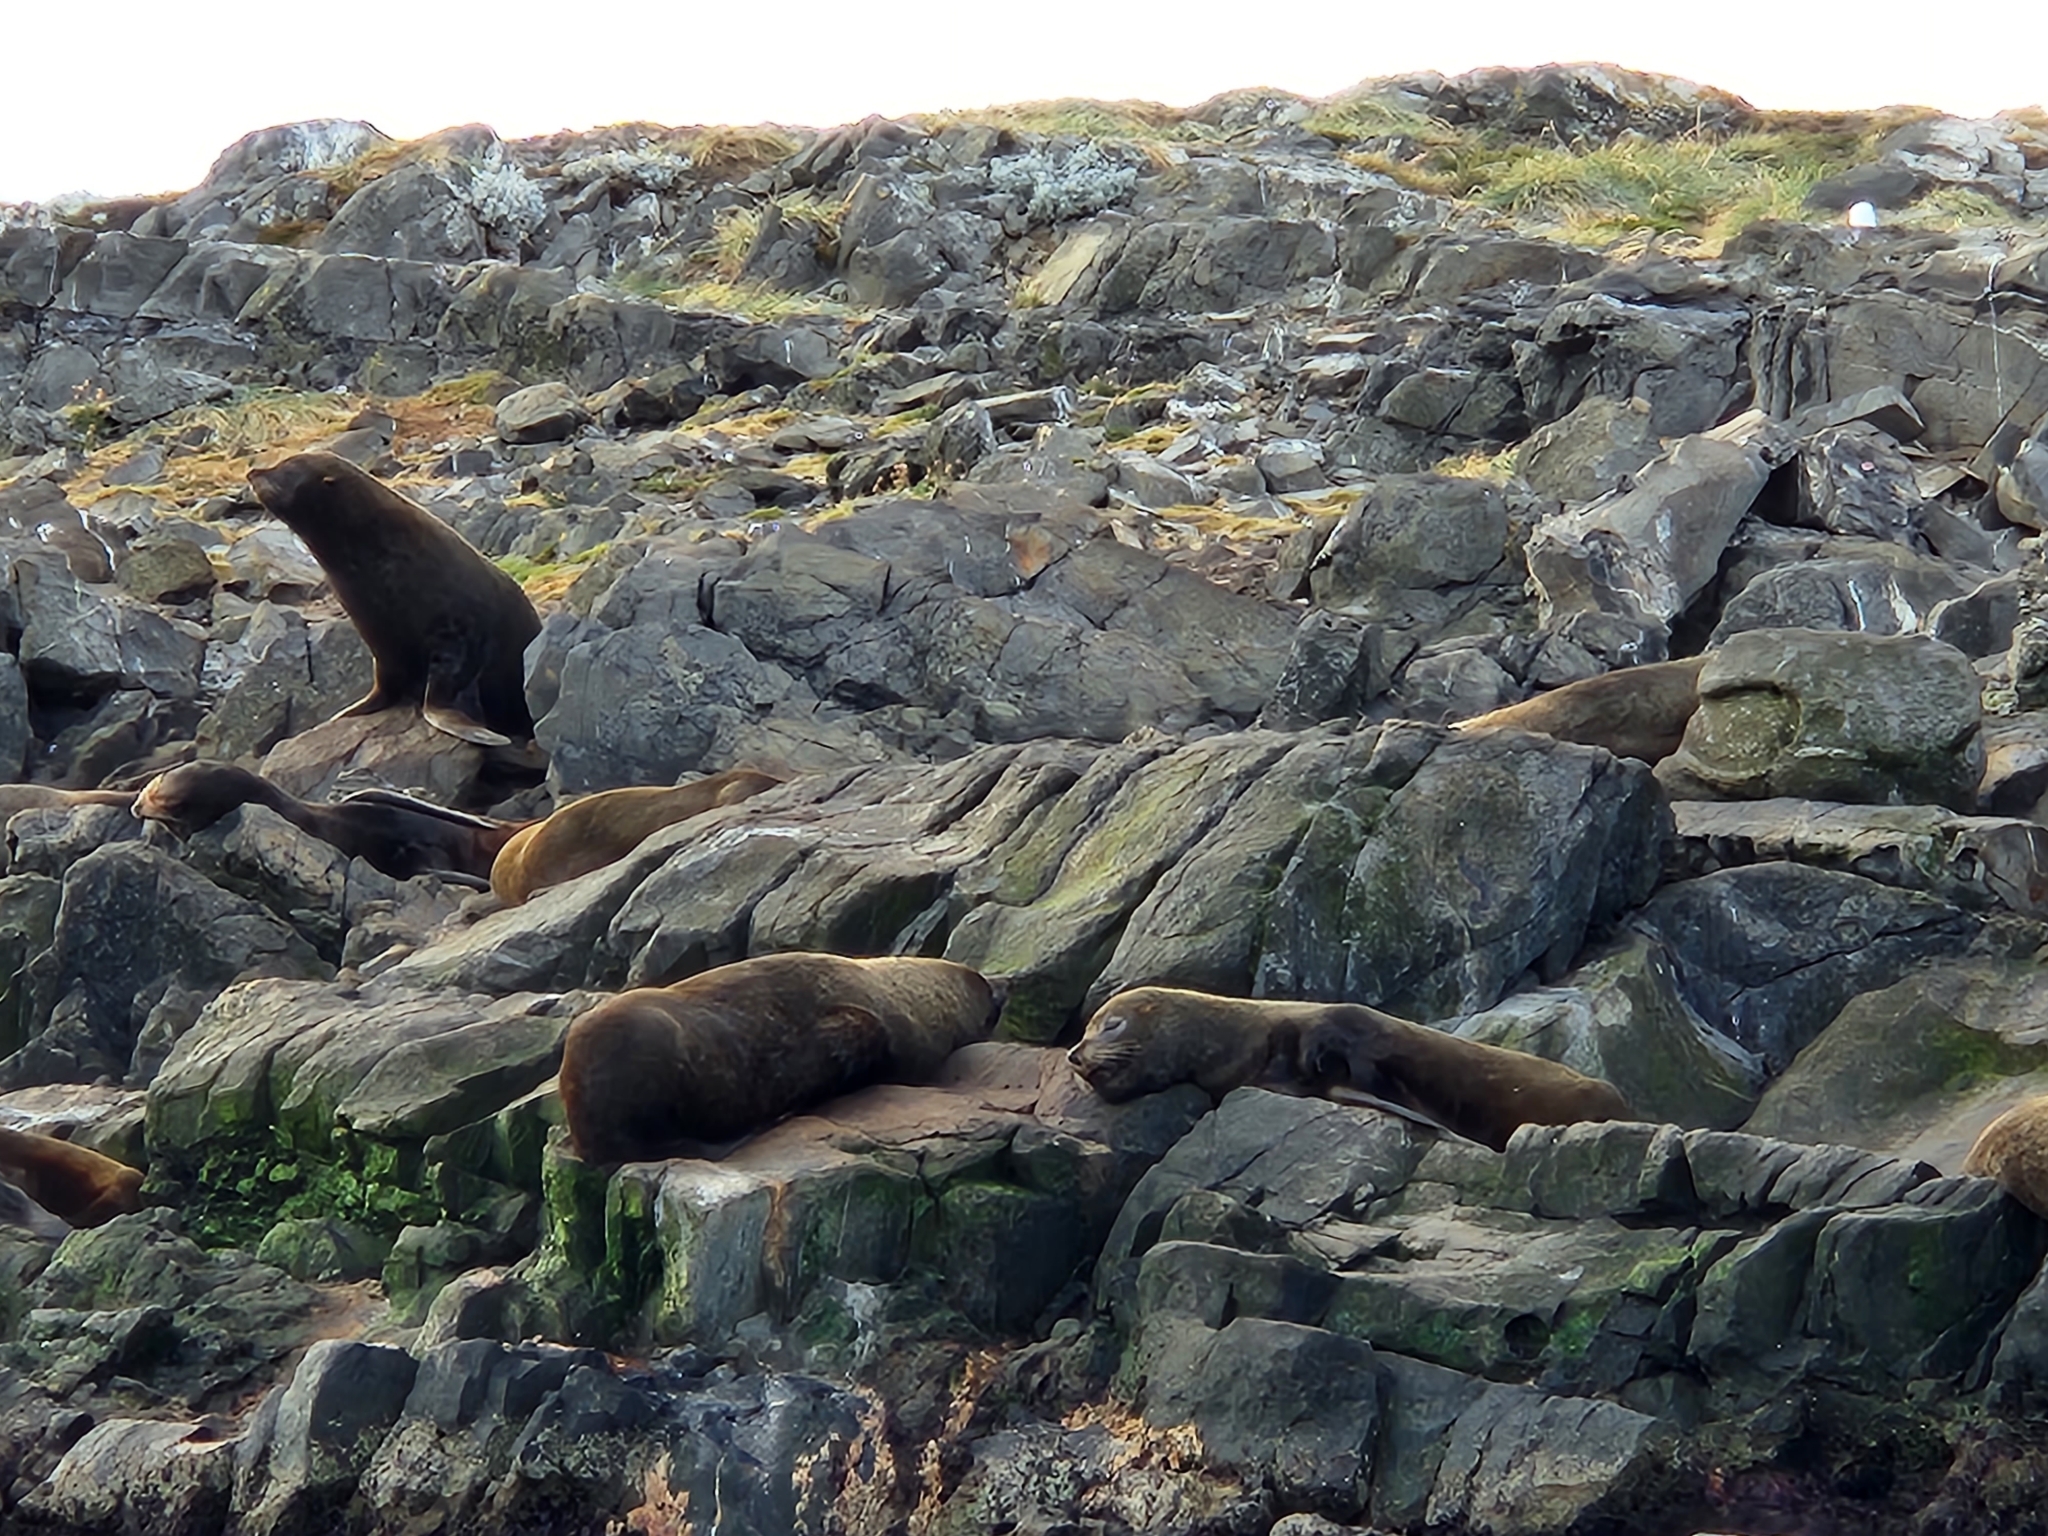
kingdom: Animalia
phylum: Chordata
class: Mammalia
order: Carnivora
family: Otariidae
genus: Arctocephalus
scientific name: Arctocephalus australis
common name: South american fur seal
